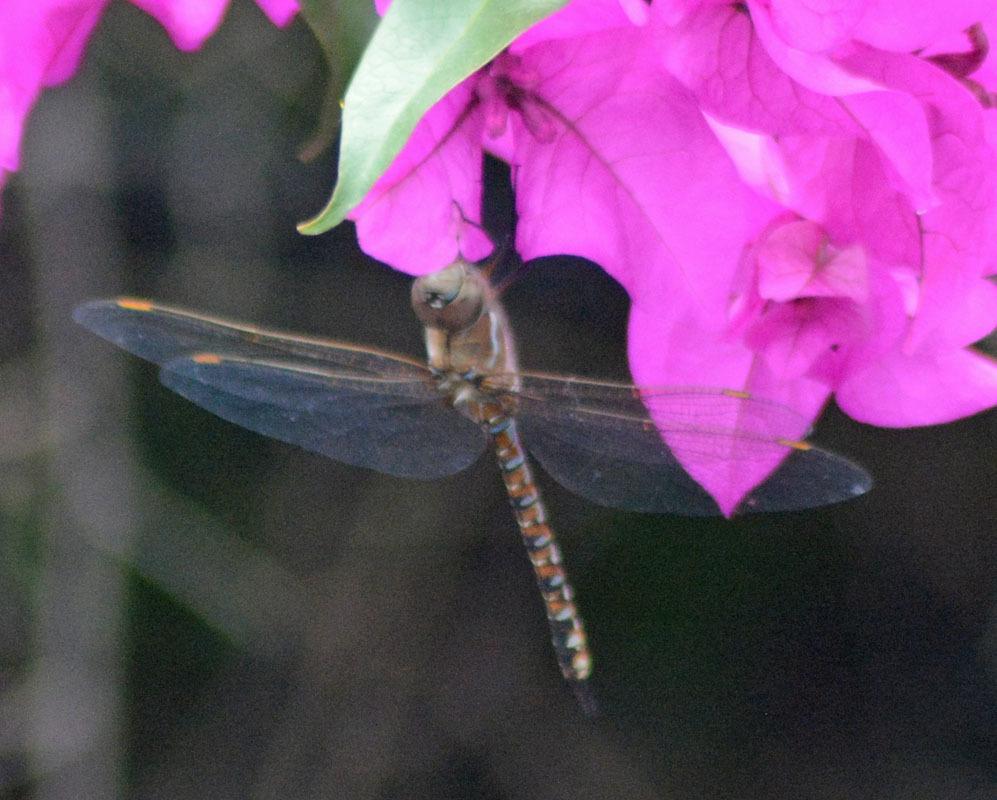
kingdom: Animalia
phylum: Arthropoda
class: Insecta
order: Odonata
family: Aeshnidae
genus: Rhionaeschna
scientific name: Rhionaeschna multicolor
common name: Blue-eyed darner
